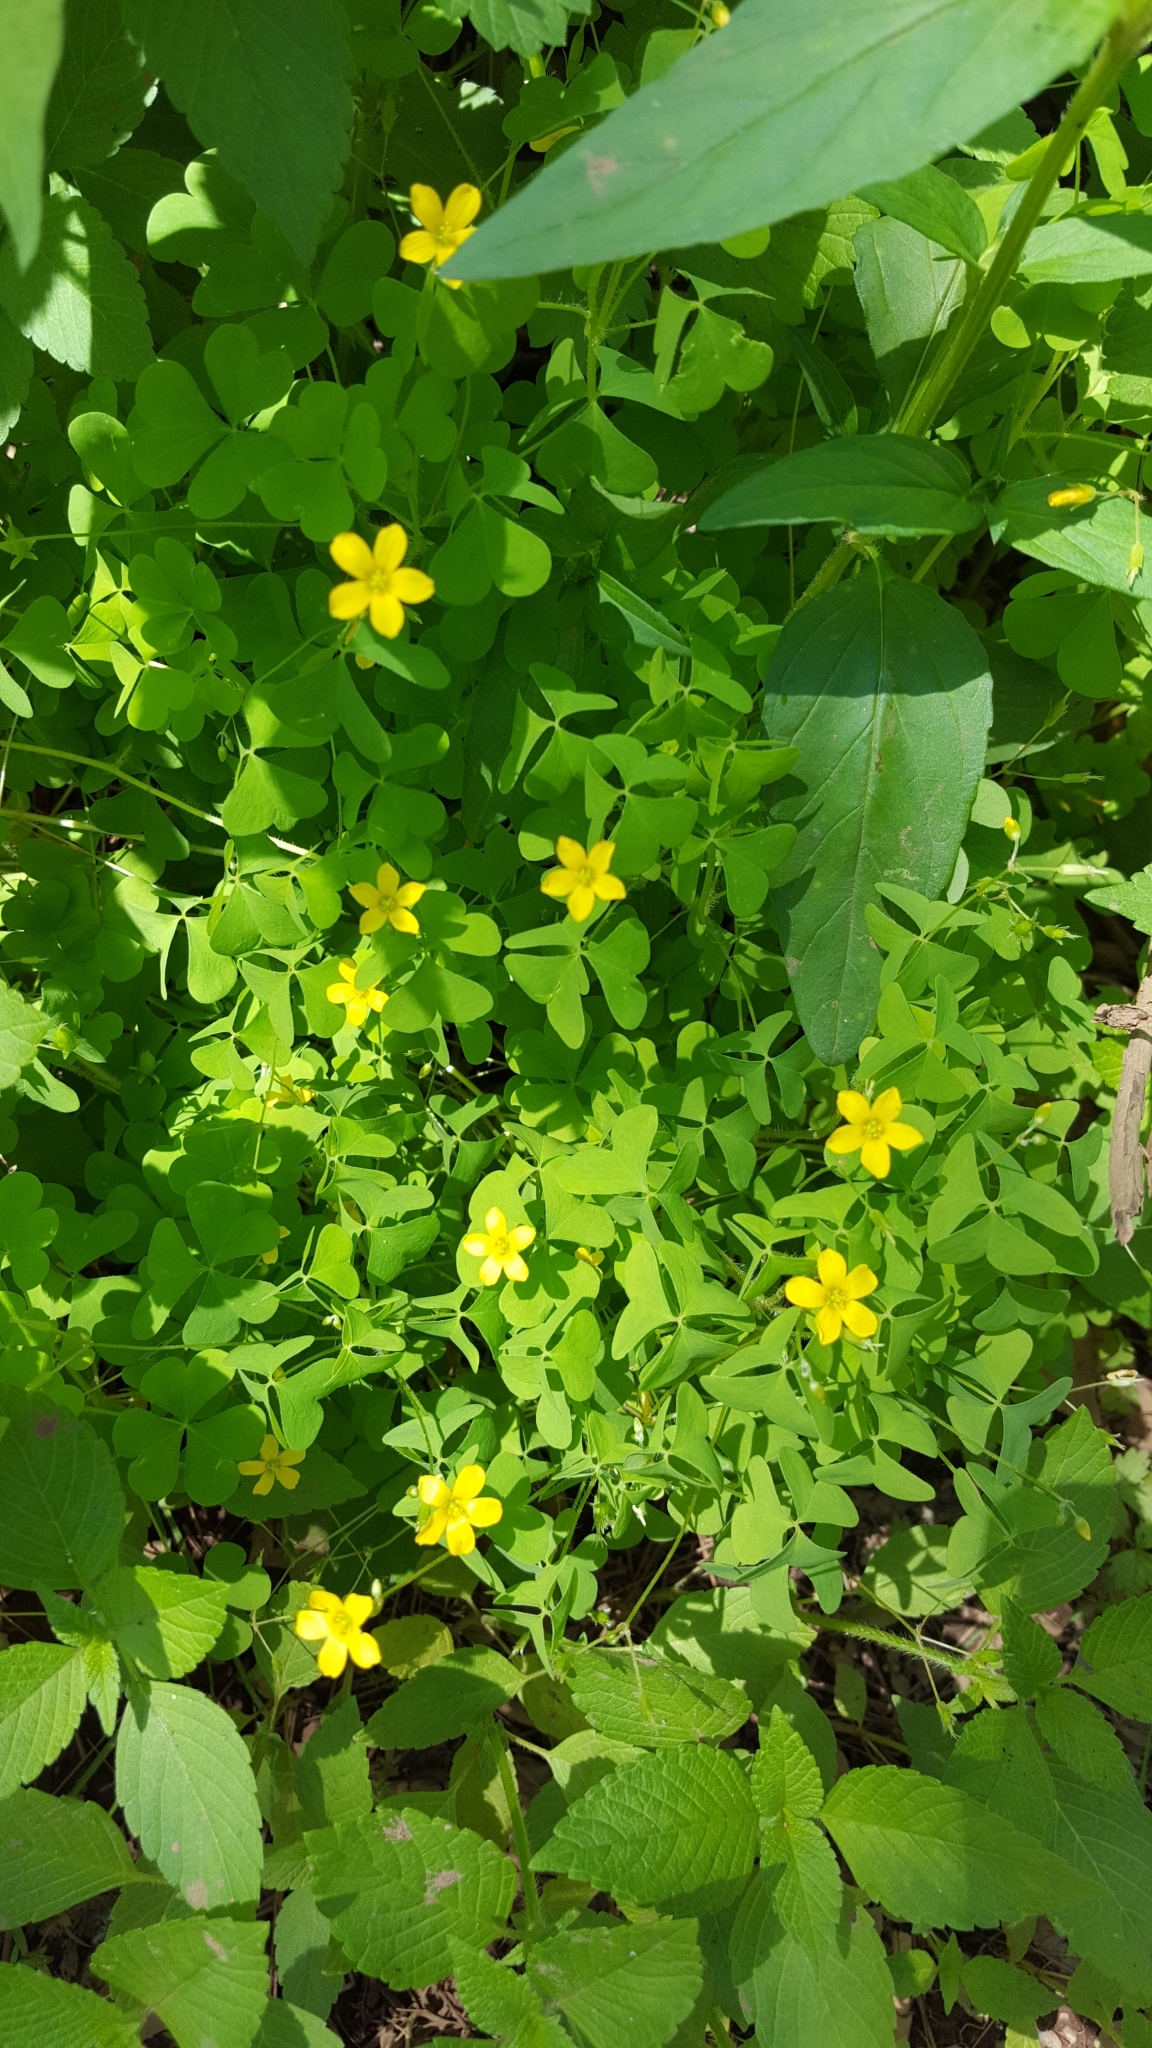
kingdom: Plantae
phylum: Tracheophyta
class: Magnoliopsida
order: Oxalidales
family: Oxalidaceae
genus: Oxalis
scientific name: Oxalis stricta
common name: Upright yellow-sorrel
